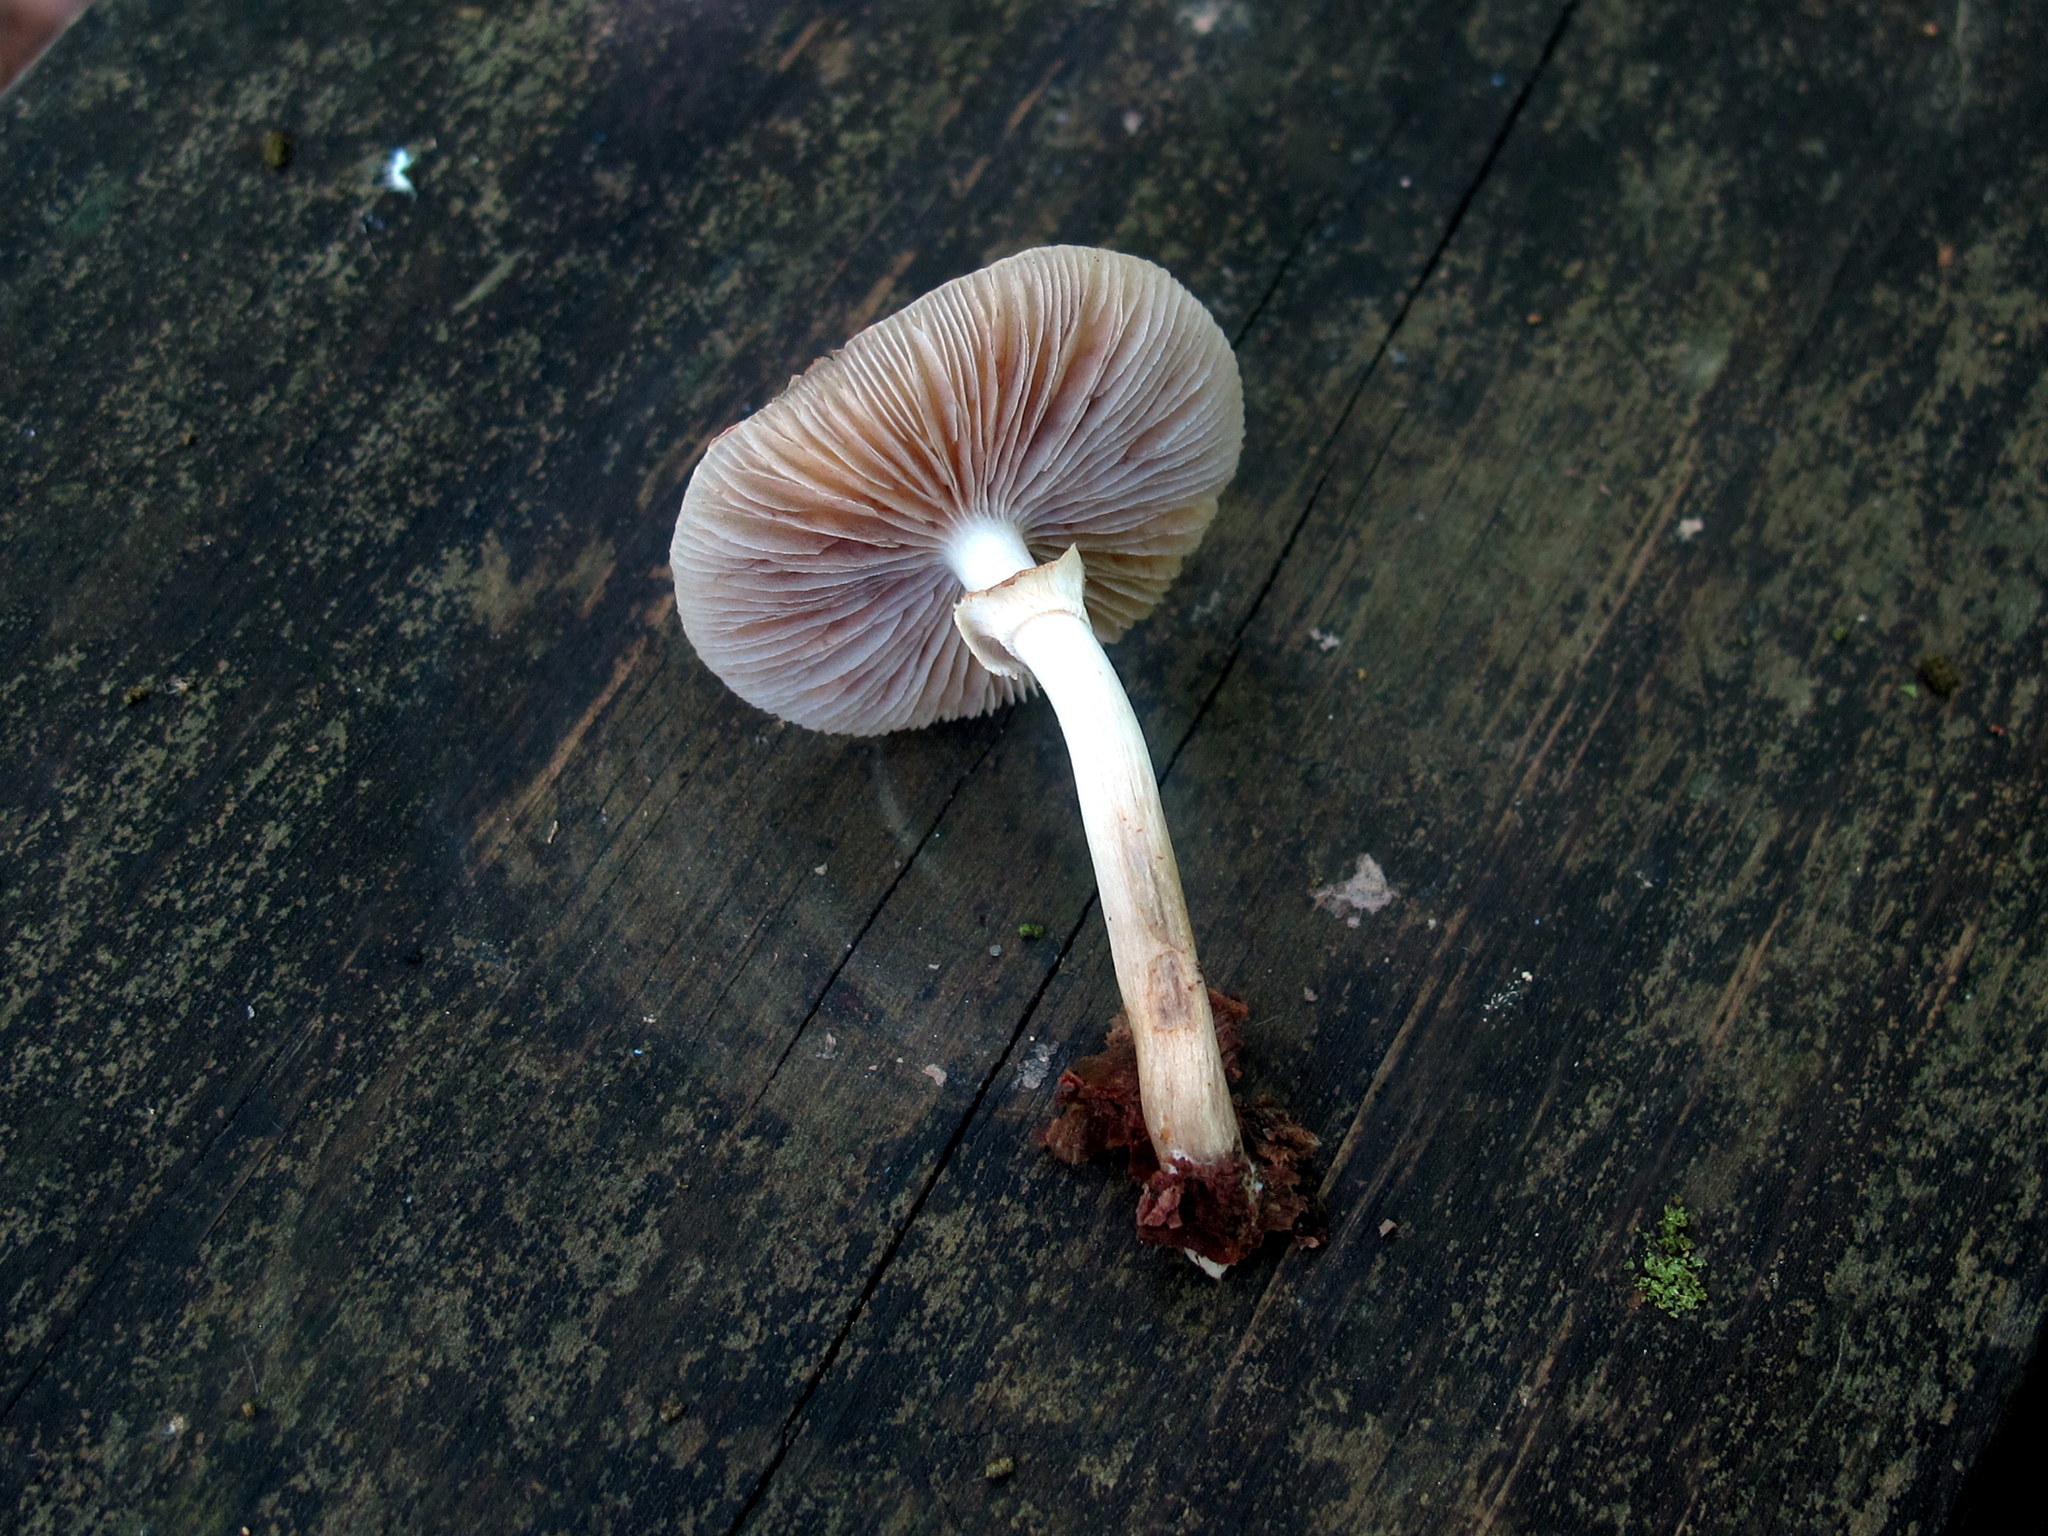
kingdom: Fungi
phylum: Basidiomycota
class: Agaricomycetes
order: Agaricales
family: Strophariaceae
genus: Agrocybe
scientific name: Agrocybe acericola
